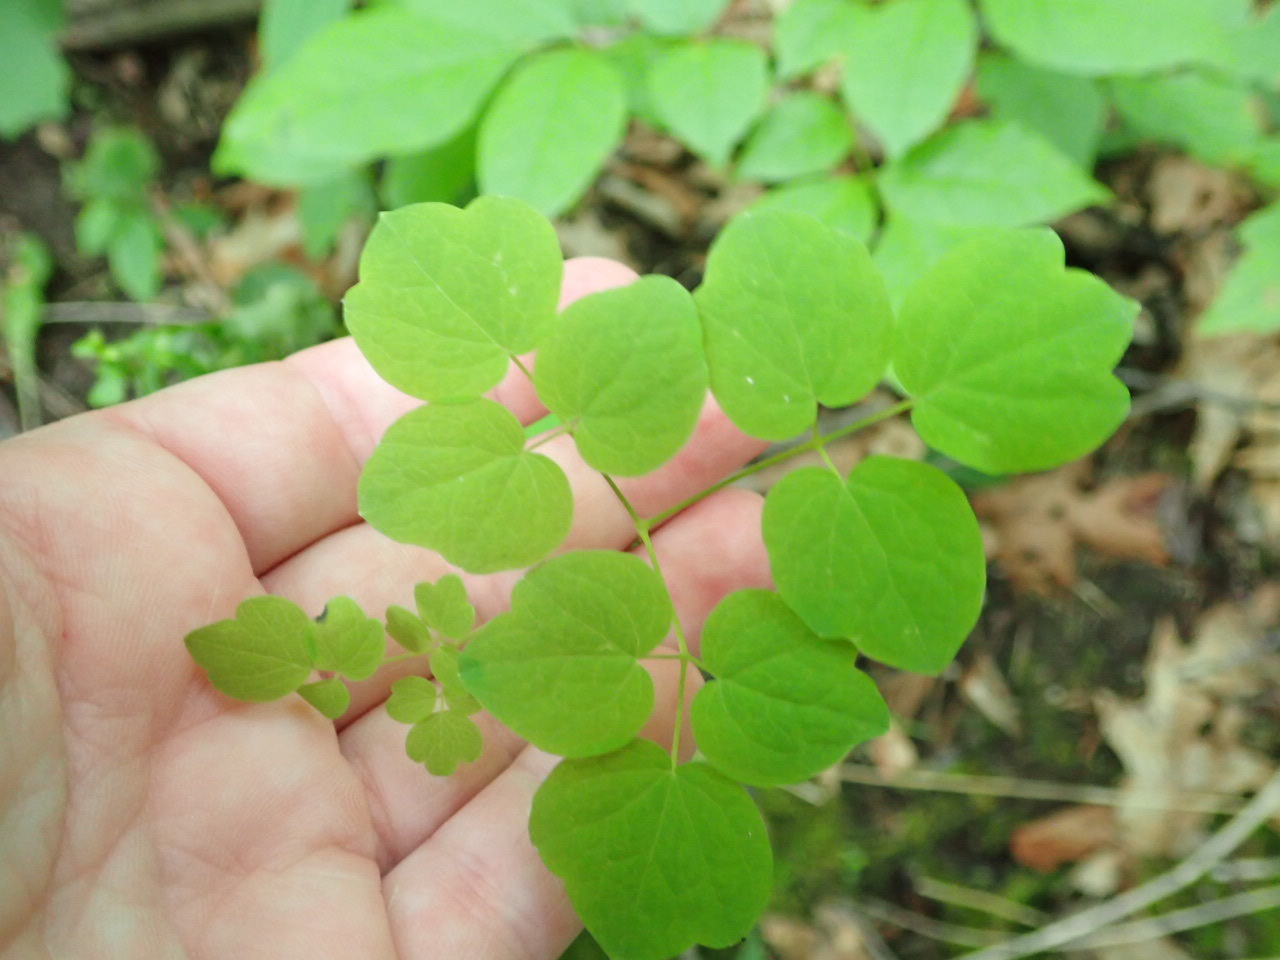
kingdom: Plantae
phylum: Tracheophyta
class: Magnoliopsida
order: Ranunculales
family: Ranunculaceae
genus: Thalictrum
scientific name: Thalictrum pubescens
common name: King-of-the-meadow
